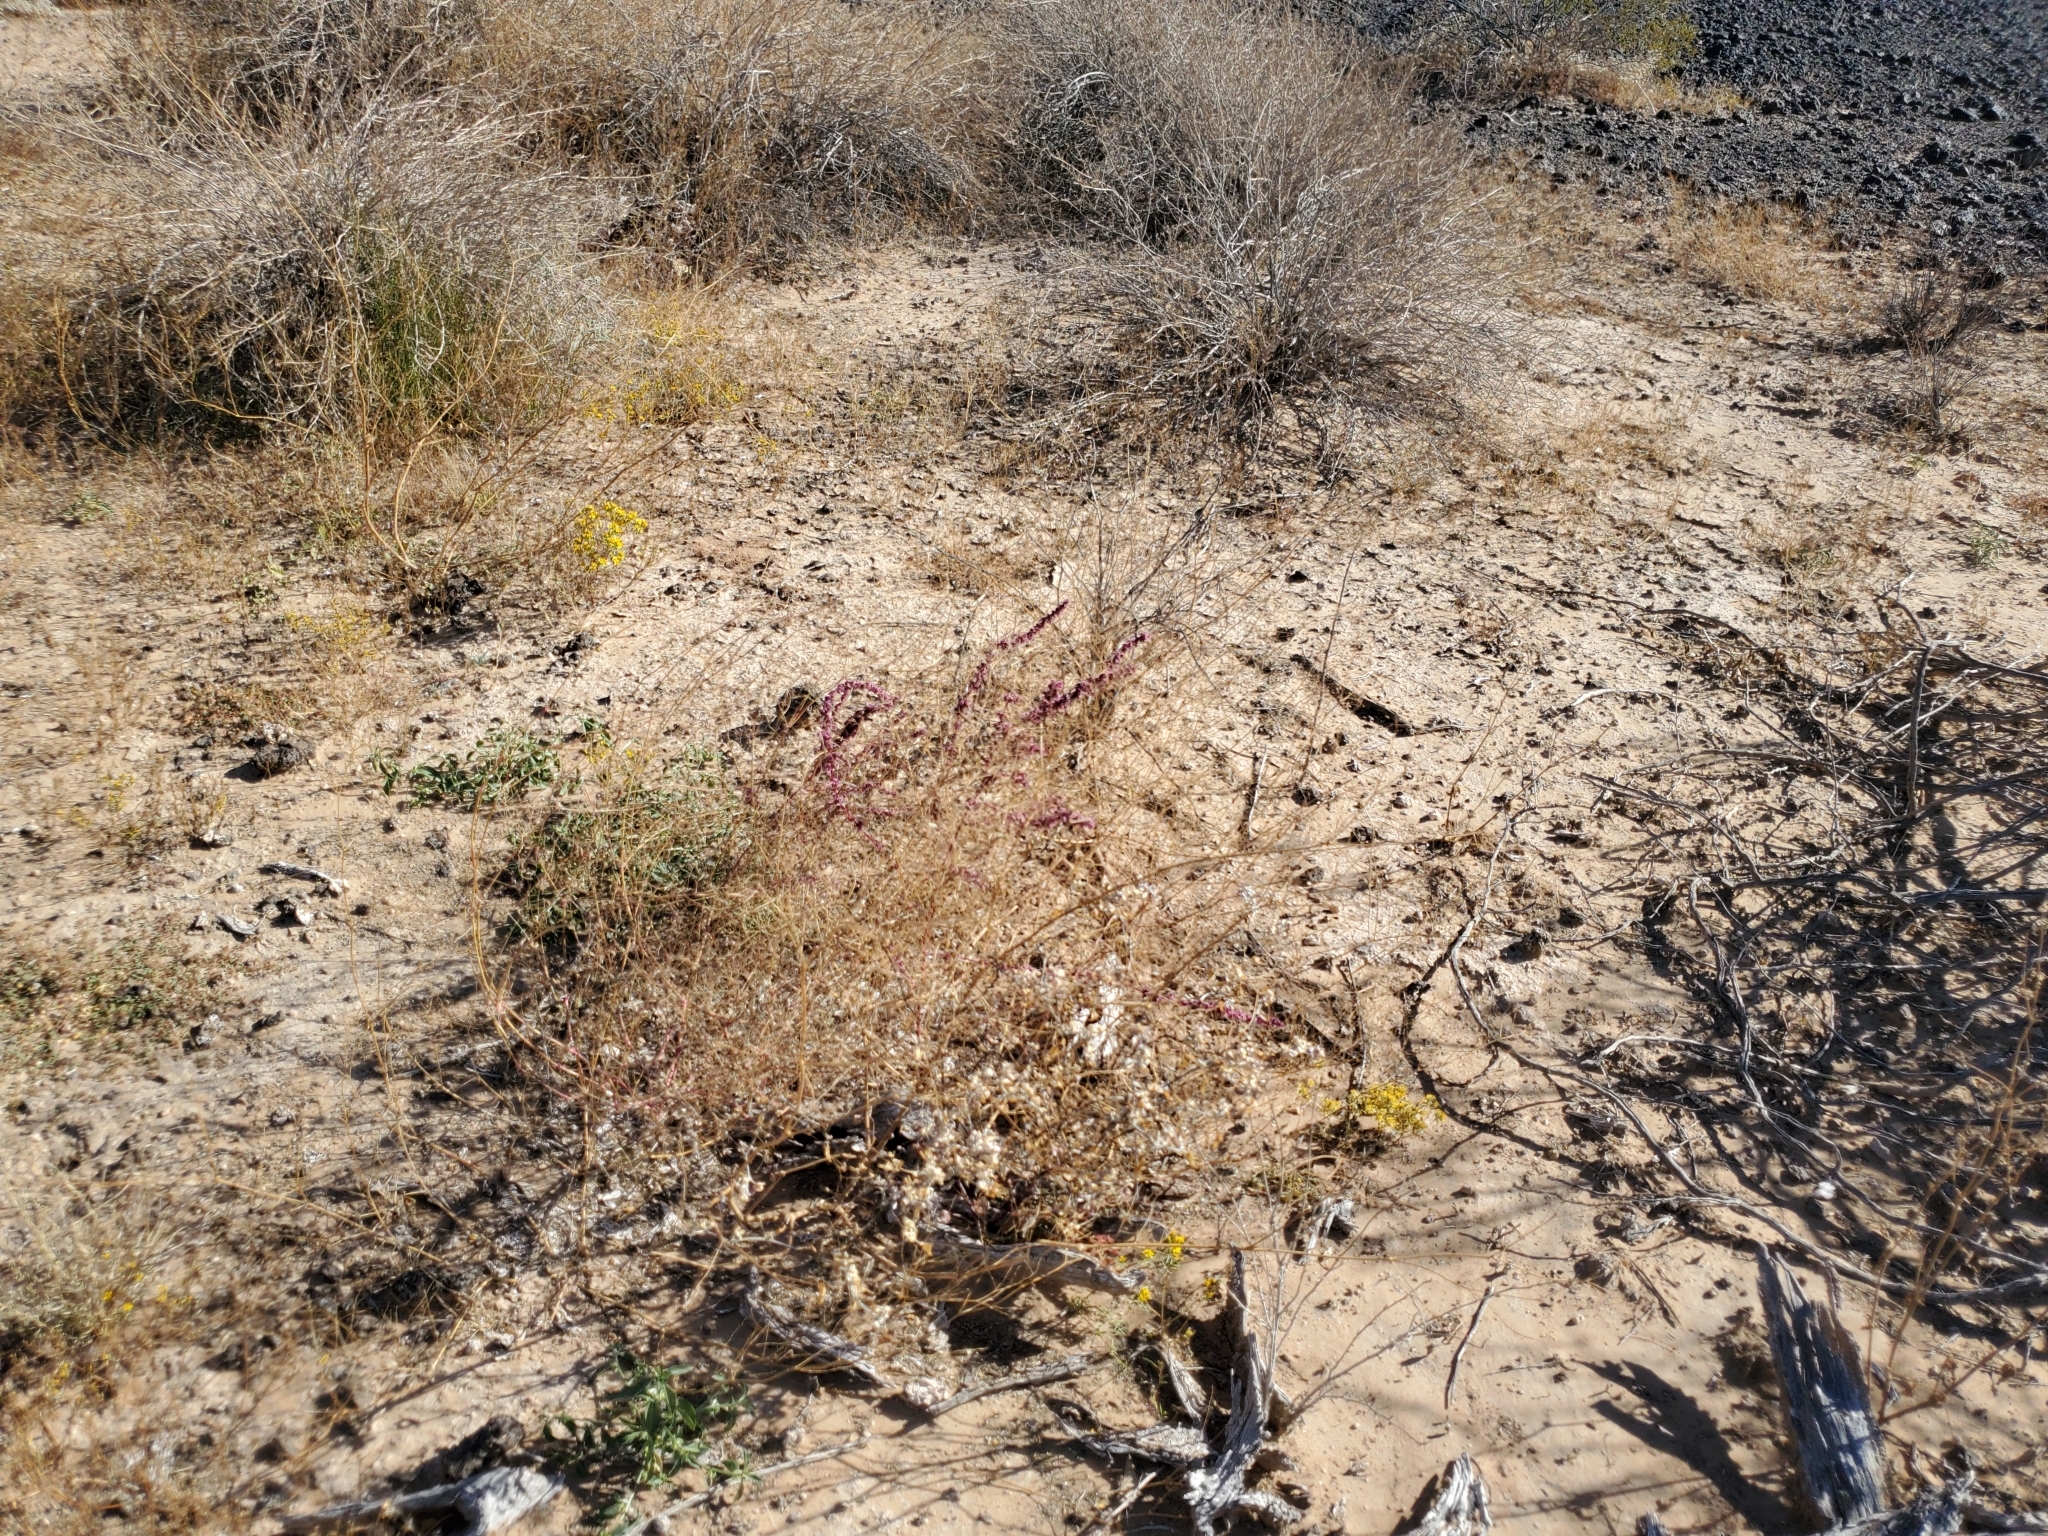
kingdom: Plantae
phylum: Tracheophyta
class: Magnoliopsida
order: Caryophyllales
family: Amaranthaceae
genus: Amaranthus
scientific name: Amaranthus fimbriatus
